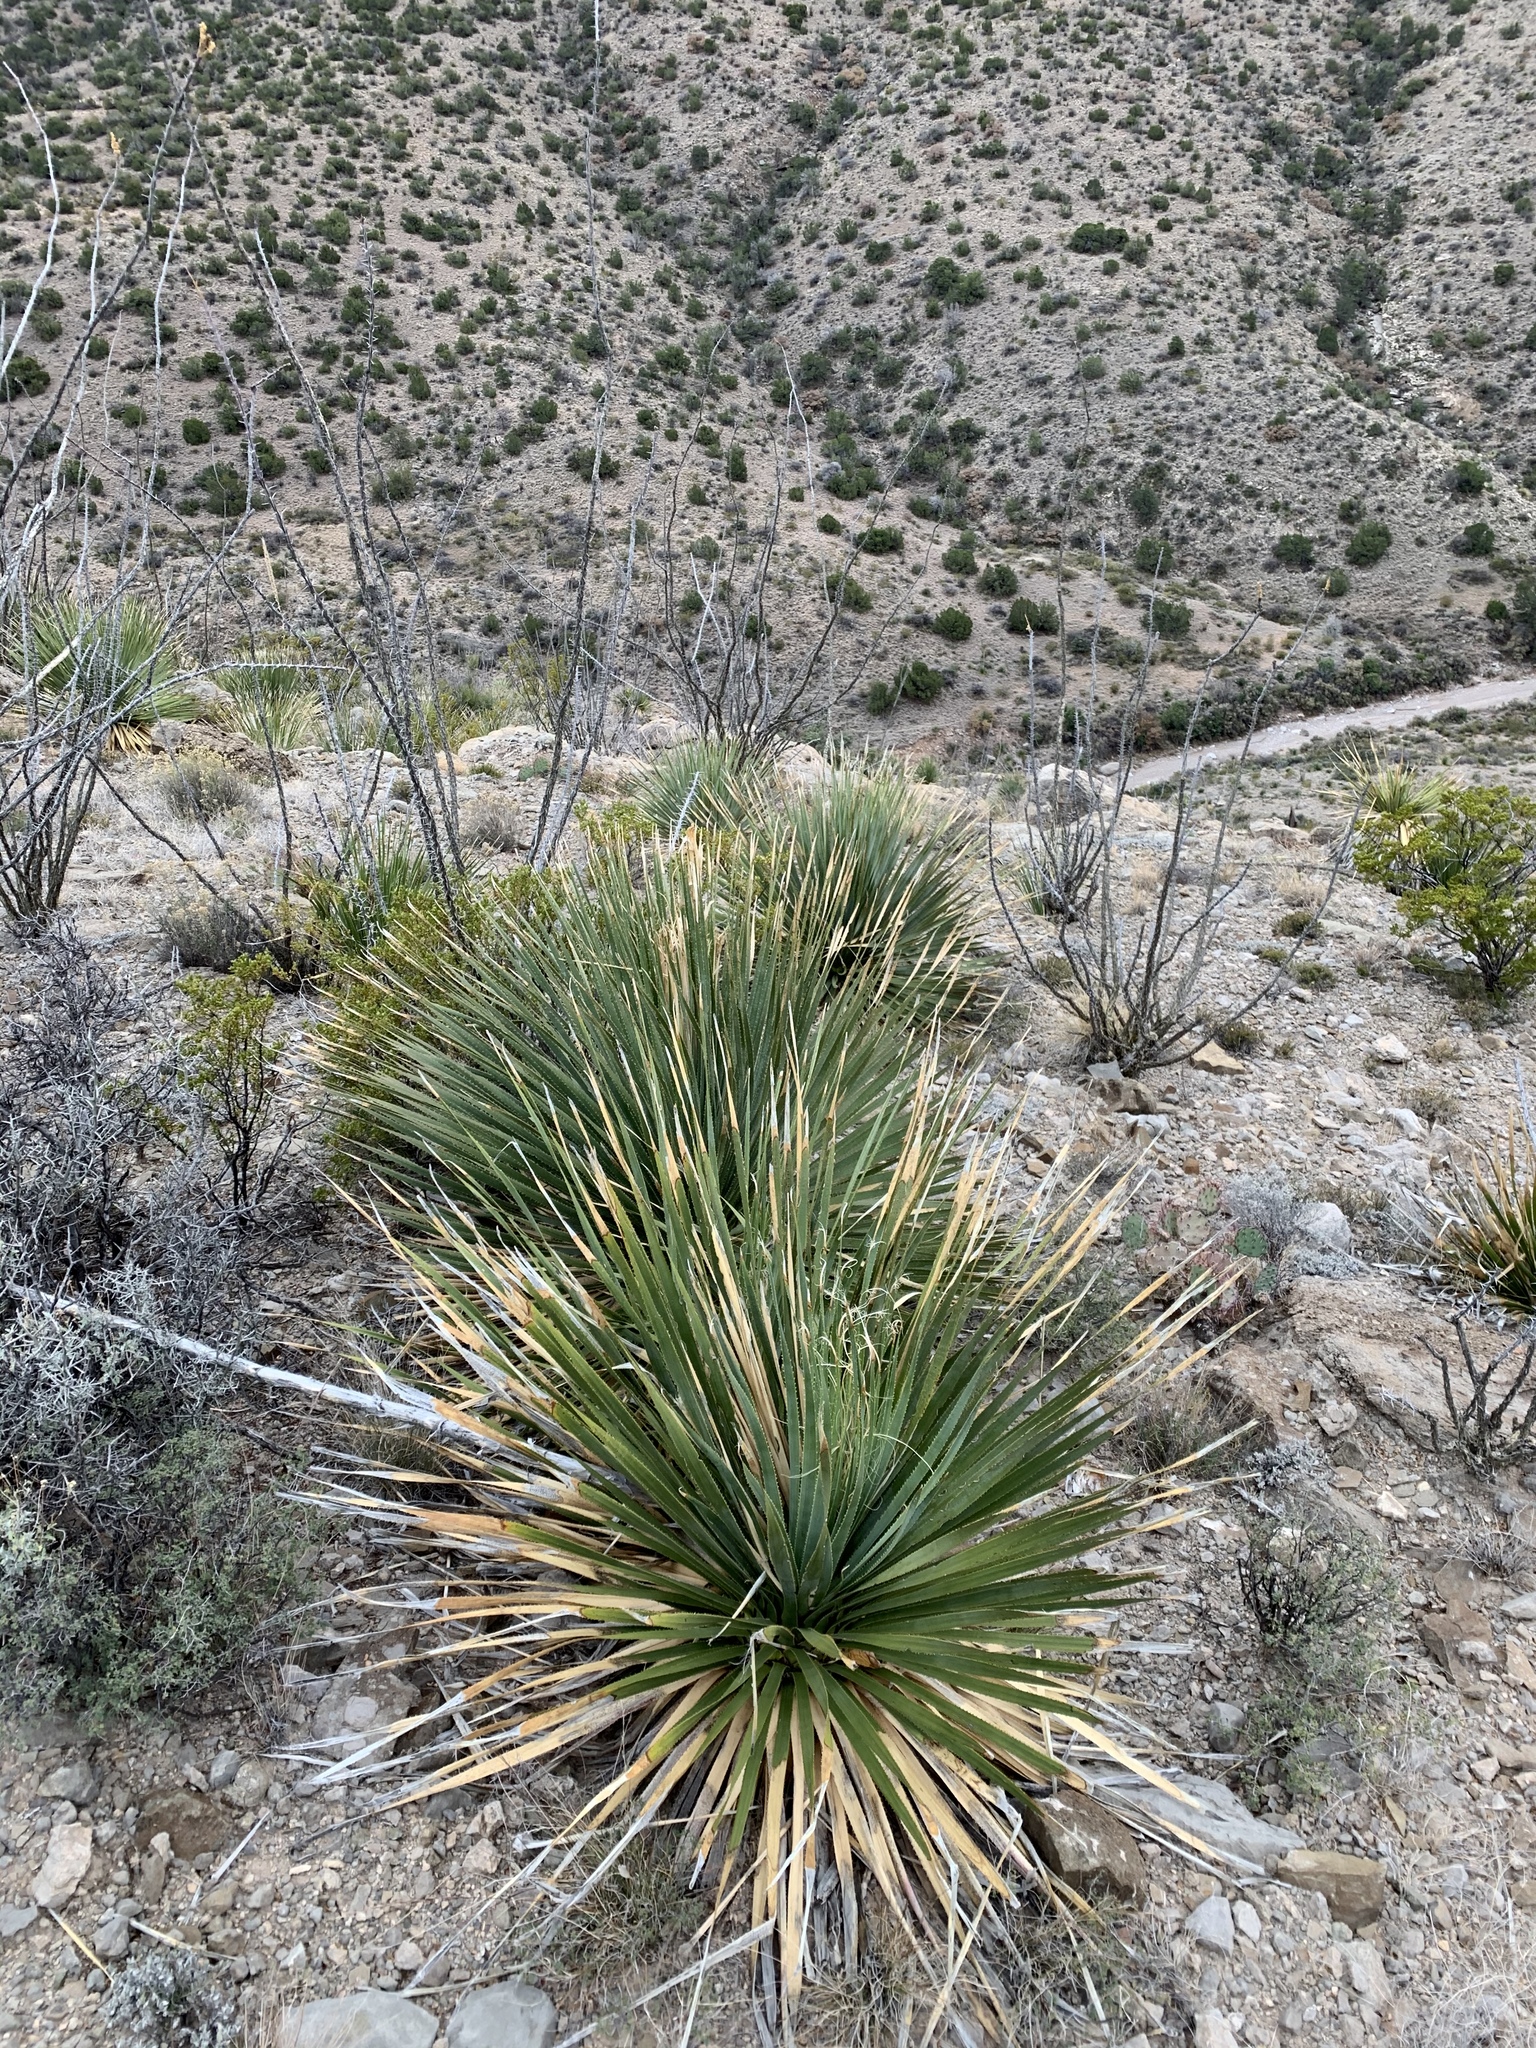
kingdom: Plantae
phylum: Tracheophyta
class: Liliopsida
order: Asparagales
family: Asparagaceae
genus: Dasylirion
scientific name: Dasylirion wheeleri
